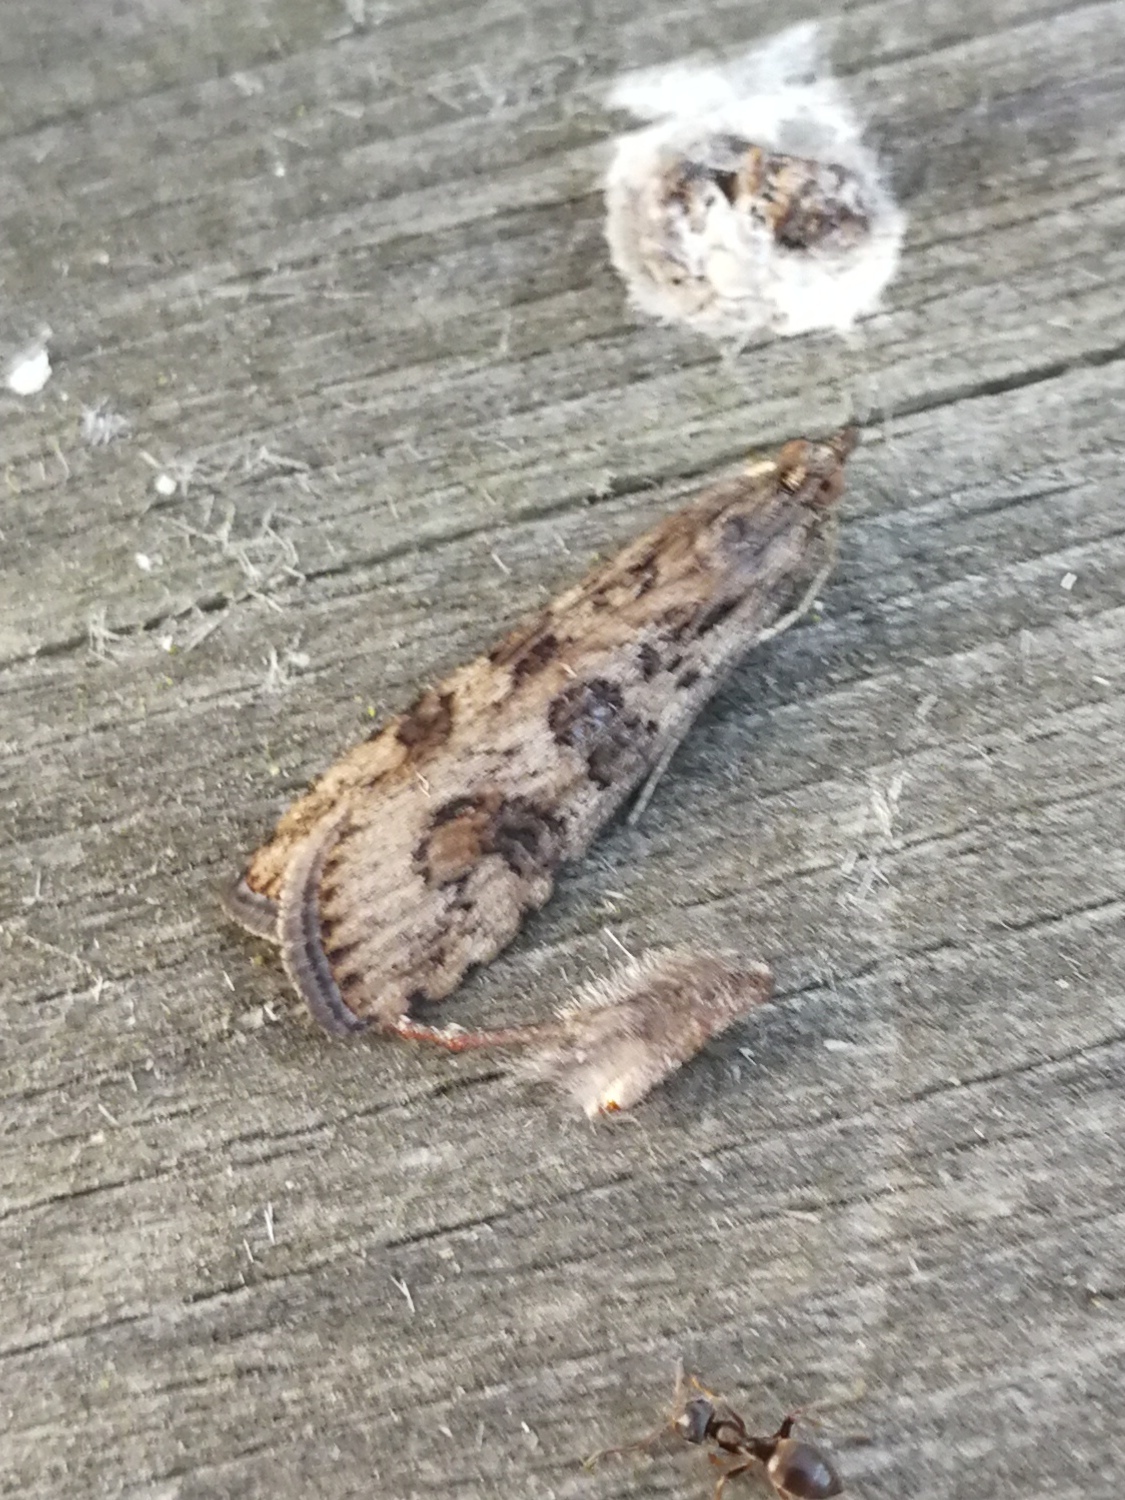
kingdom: Animalia
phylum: Arthropoda
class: Insecta
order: Lepidoptera
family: Crambidae
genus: Nomophila
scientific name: Nomophila noctuella
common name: Rush veneer
